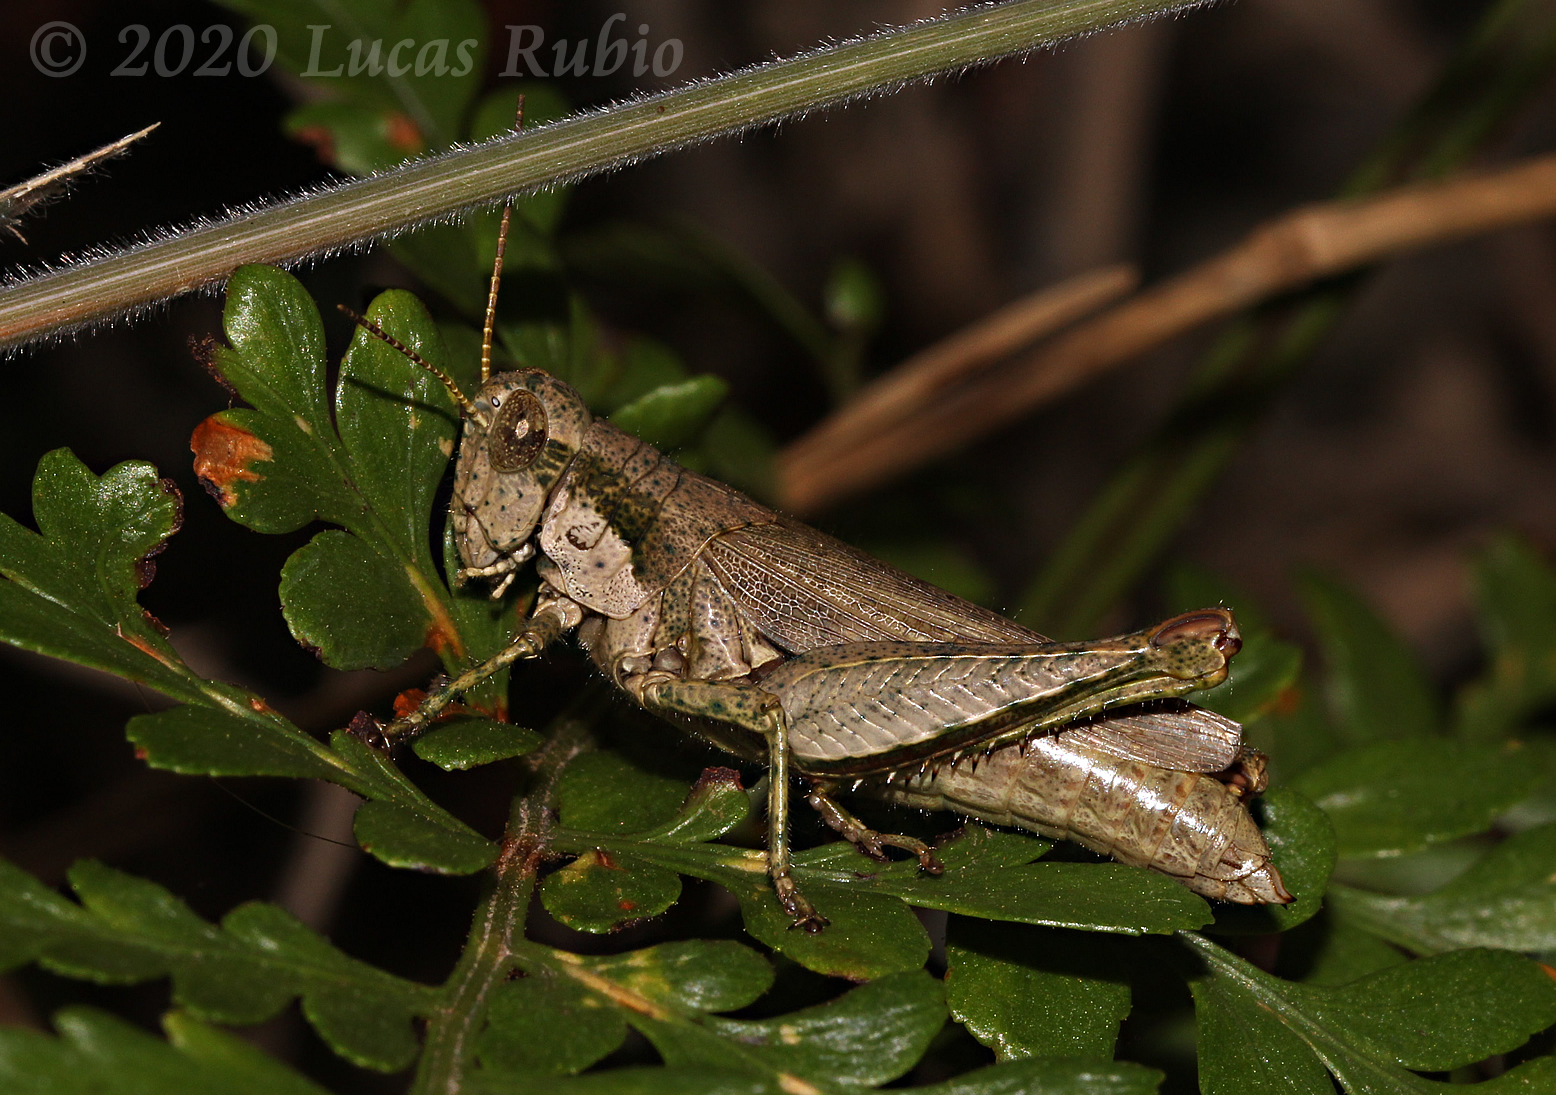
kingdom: Animalia
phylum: Arthropoda
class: Insecta
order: Orthoptera
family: Acrididae
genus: Ronderosia
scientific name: Ronderosia bergii
